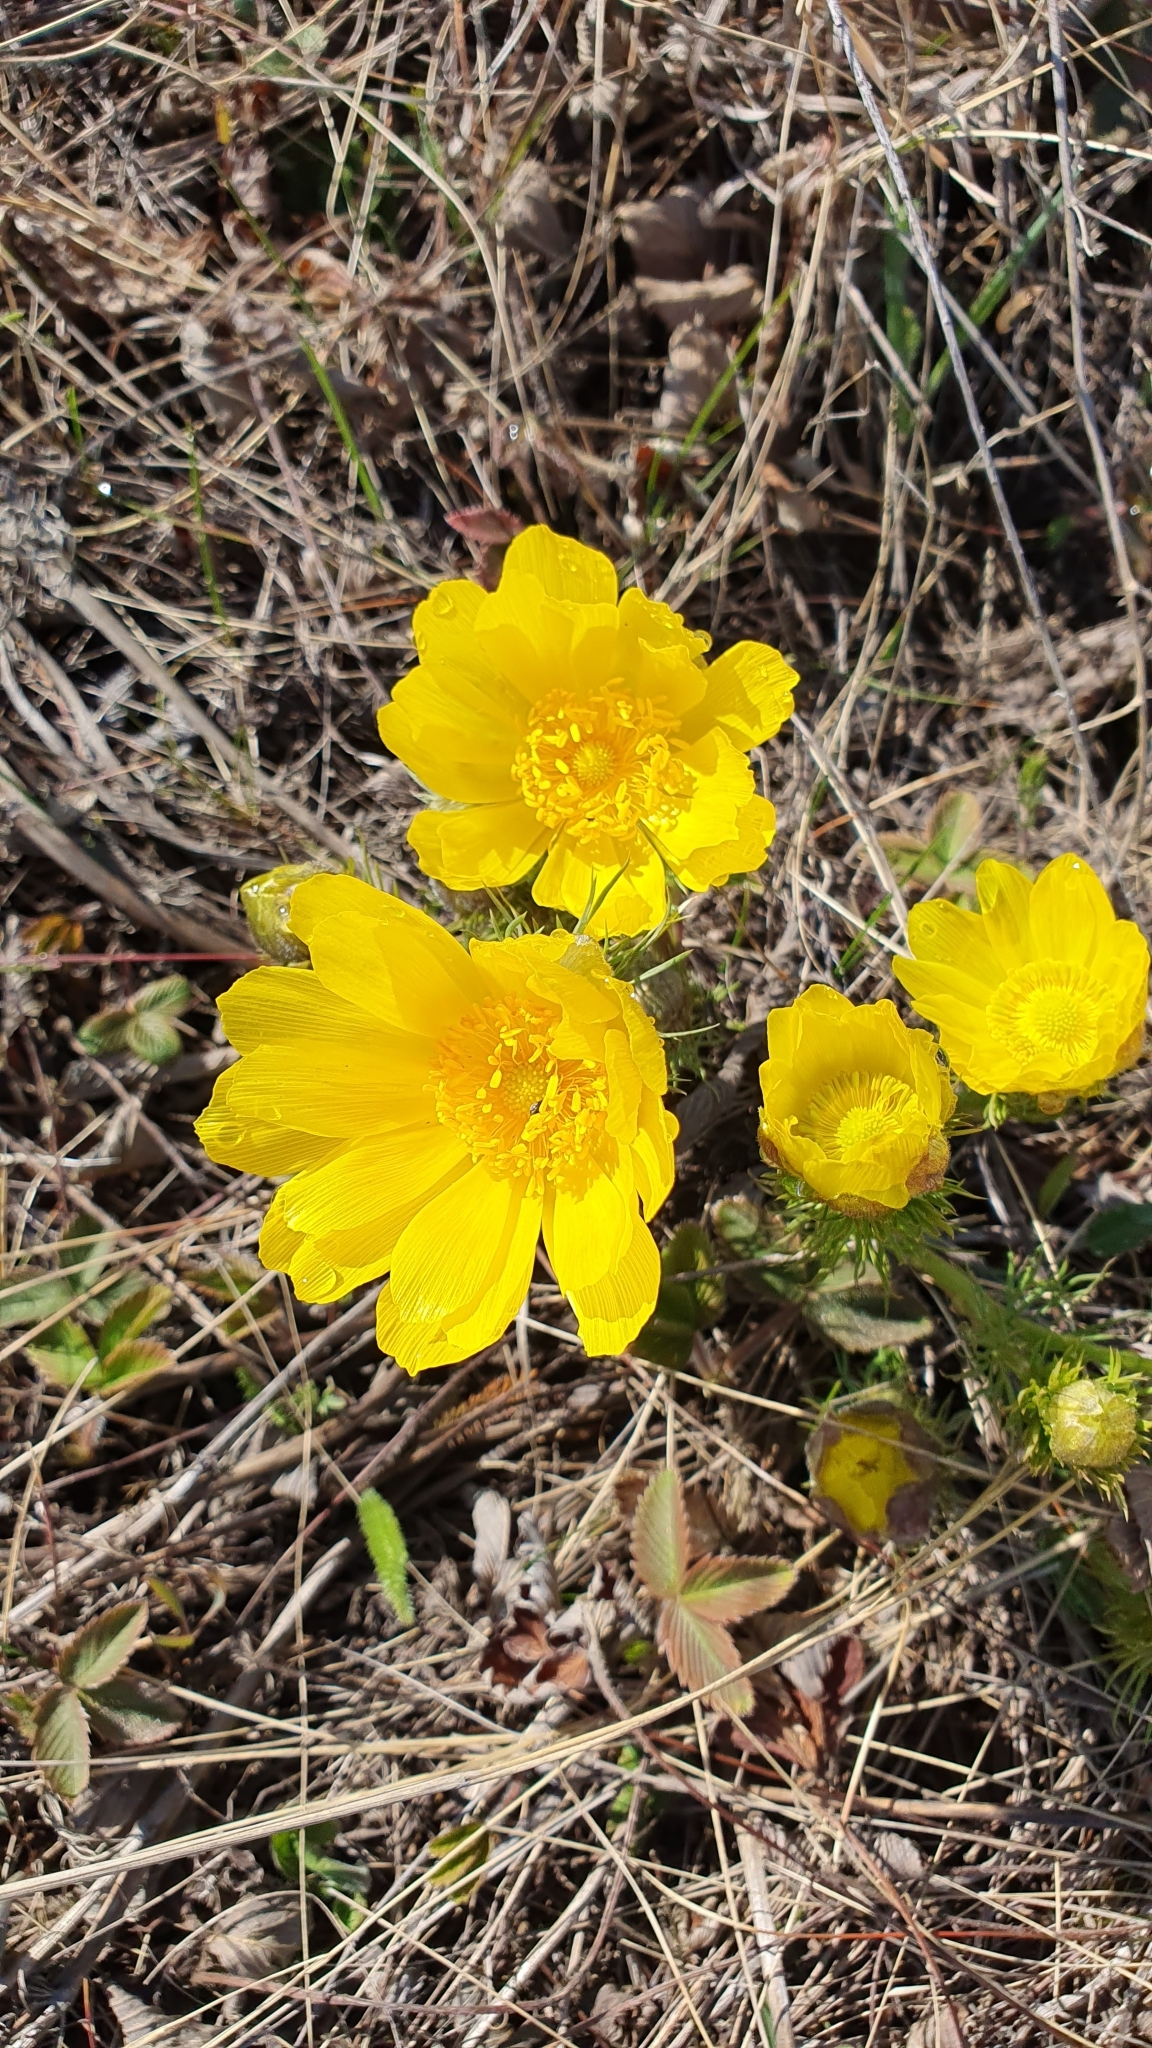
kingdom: Plantae
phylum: Tracheophyta
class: Magnoliopsida
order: Ranunculales
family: Ranunculaceae
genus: Adonis
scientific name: Adonis vernalis
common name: Yellow pheasants-eye
